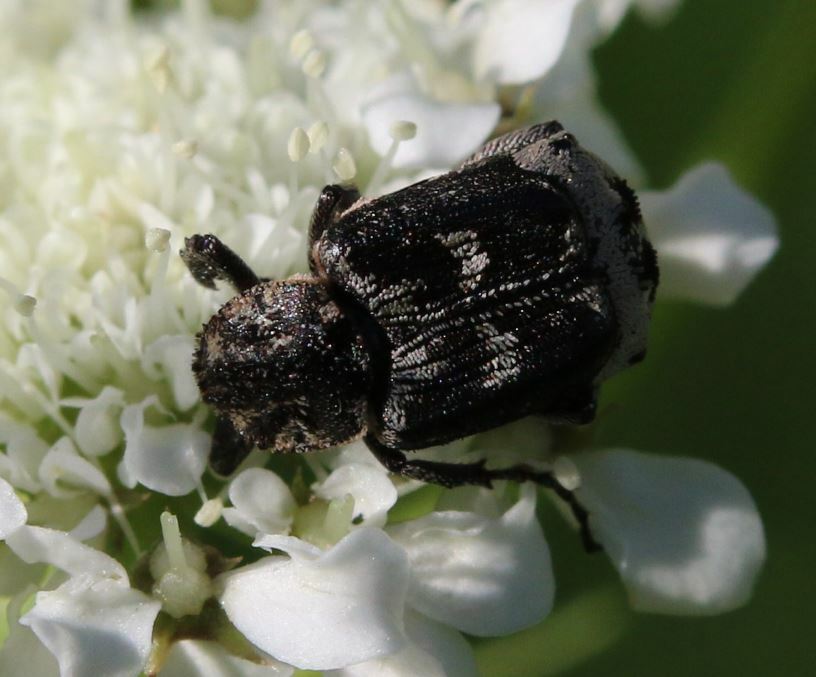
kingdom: Animalia
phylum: Arthropoda
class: Insecta
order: Coleoptera
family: Scarabaeidae
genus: Valgus
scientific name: Valgus hemipterus
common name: Bug flower chafer
